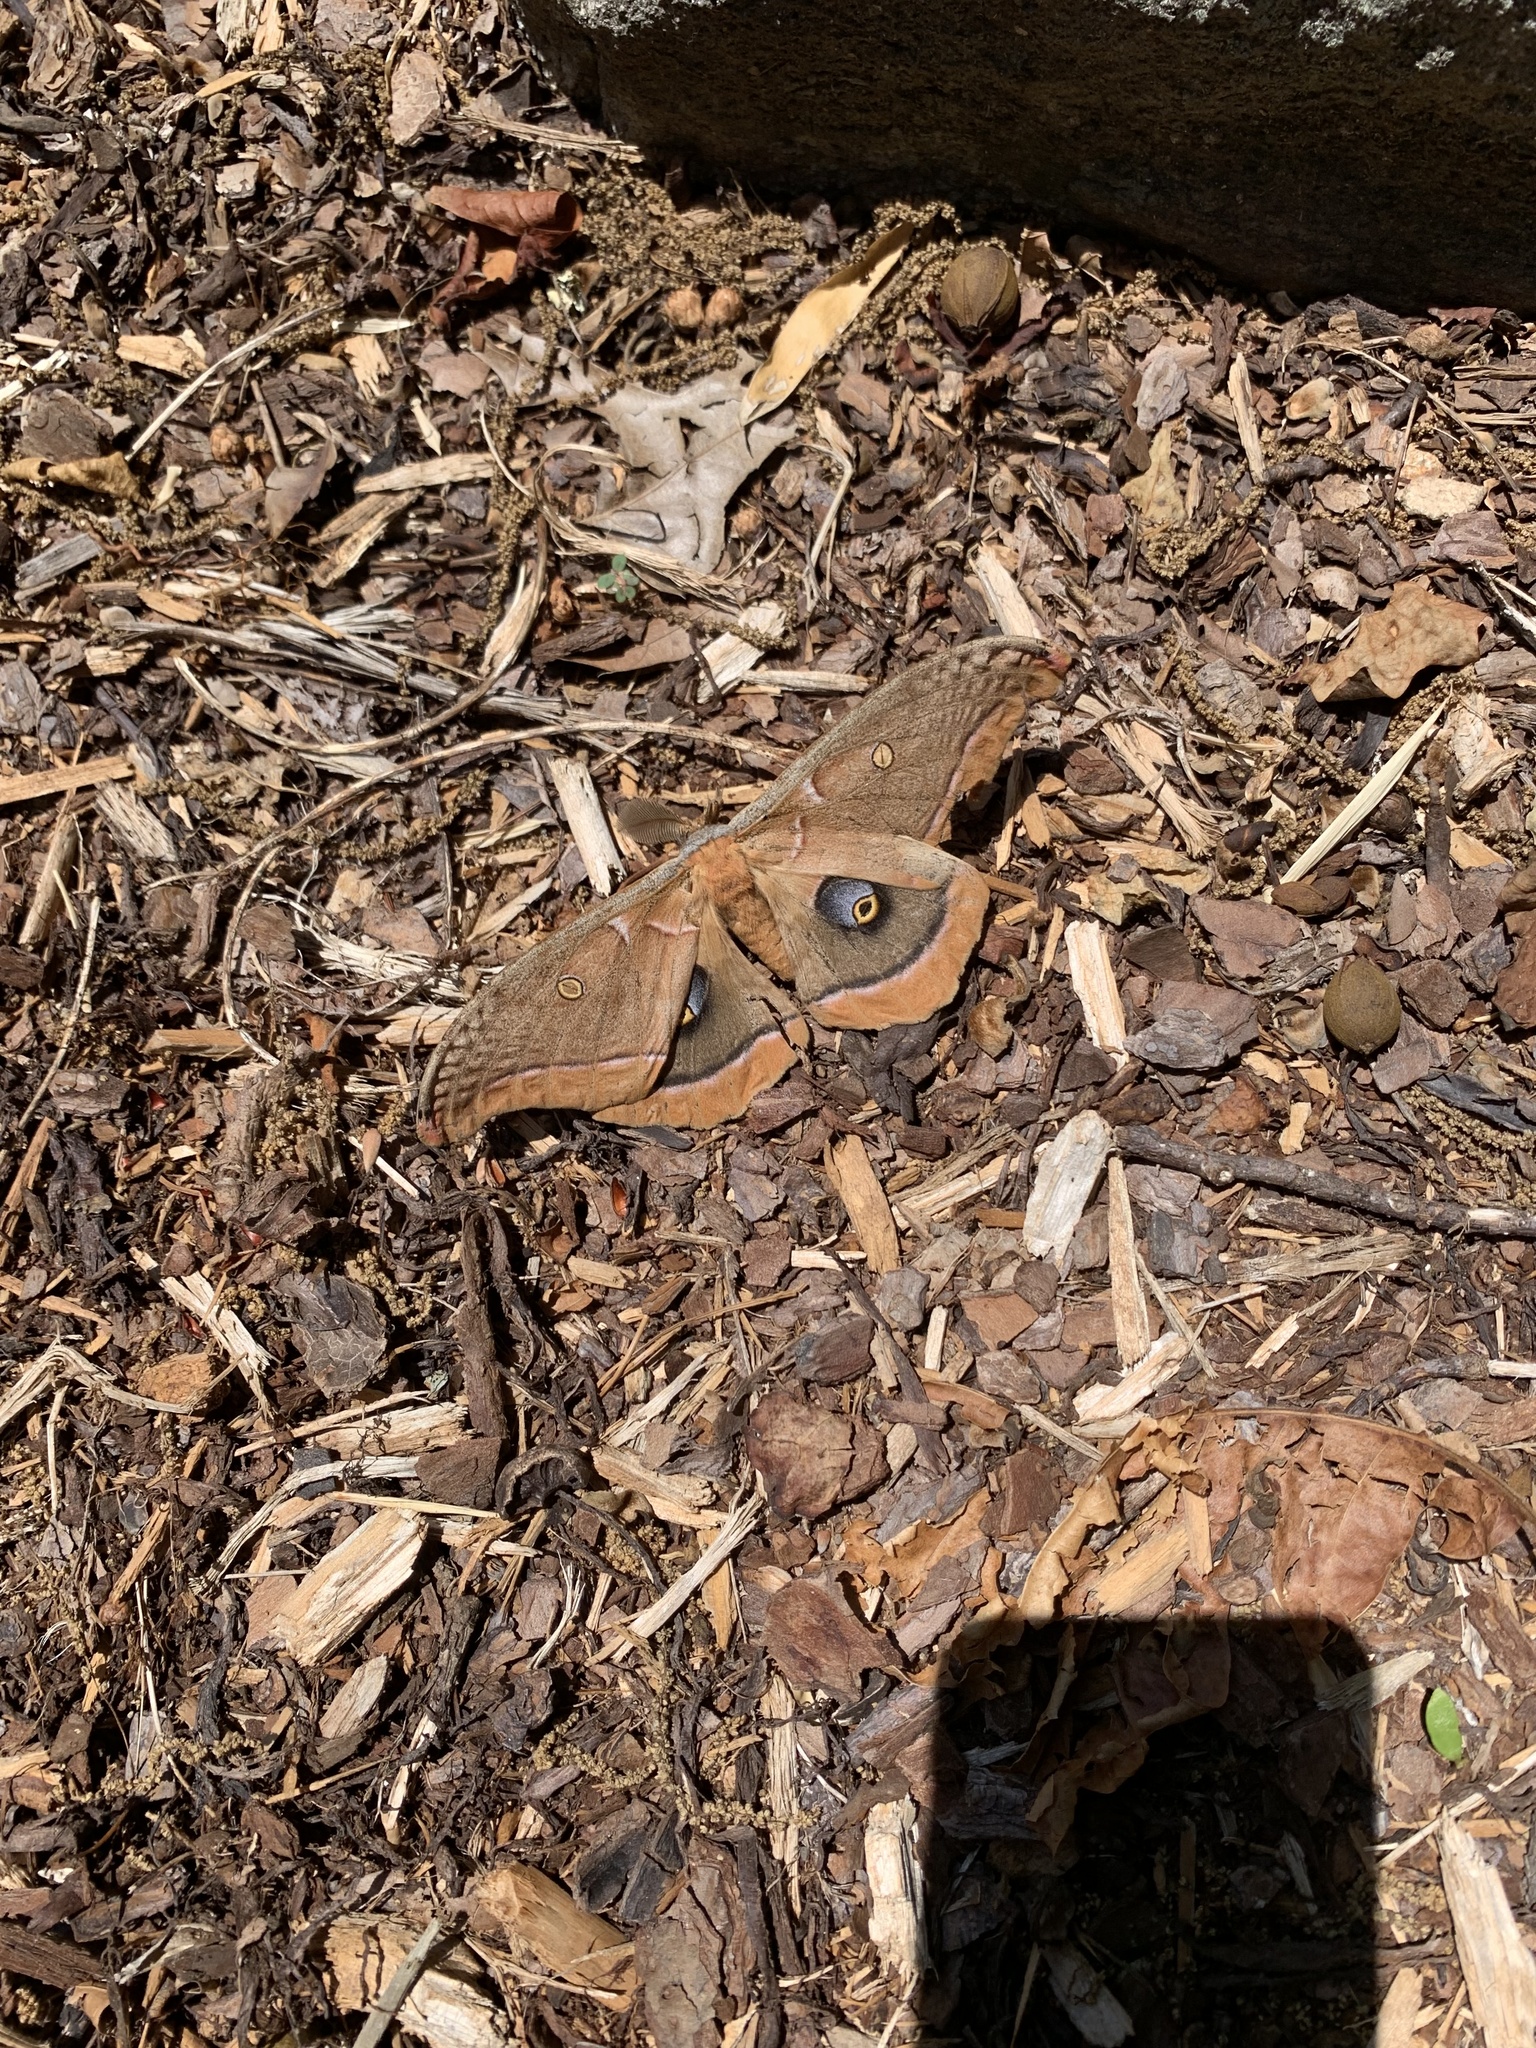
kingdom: Animalia
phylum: Arthropoda
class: Insecta
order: Lepidoptera
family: Saturniidae
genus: Antheraea
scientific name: Antheraea polyphemus
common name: Polyphemus moth
